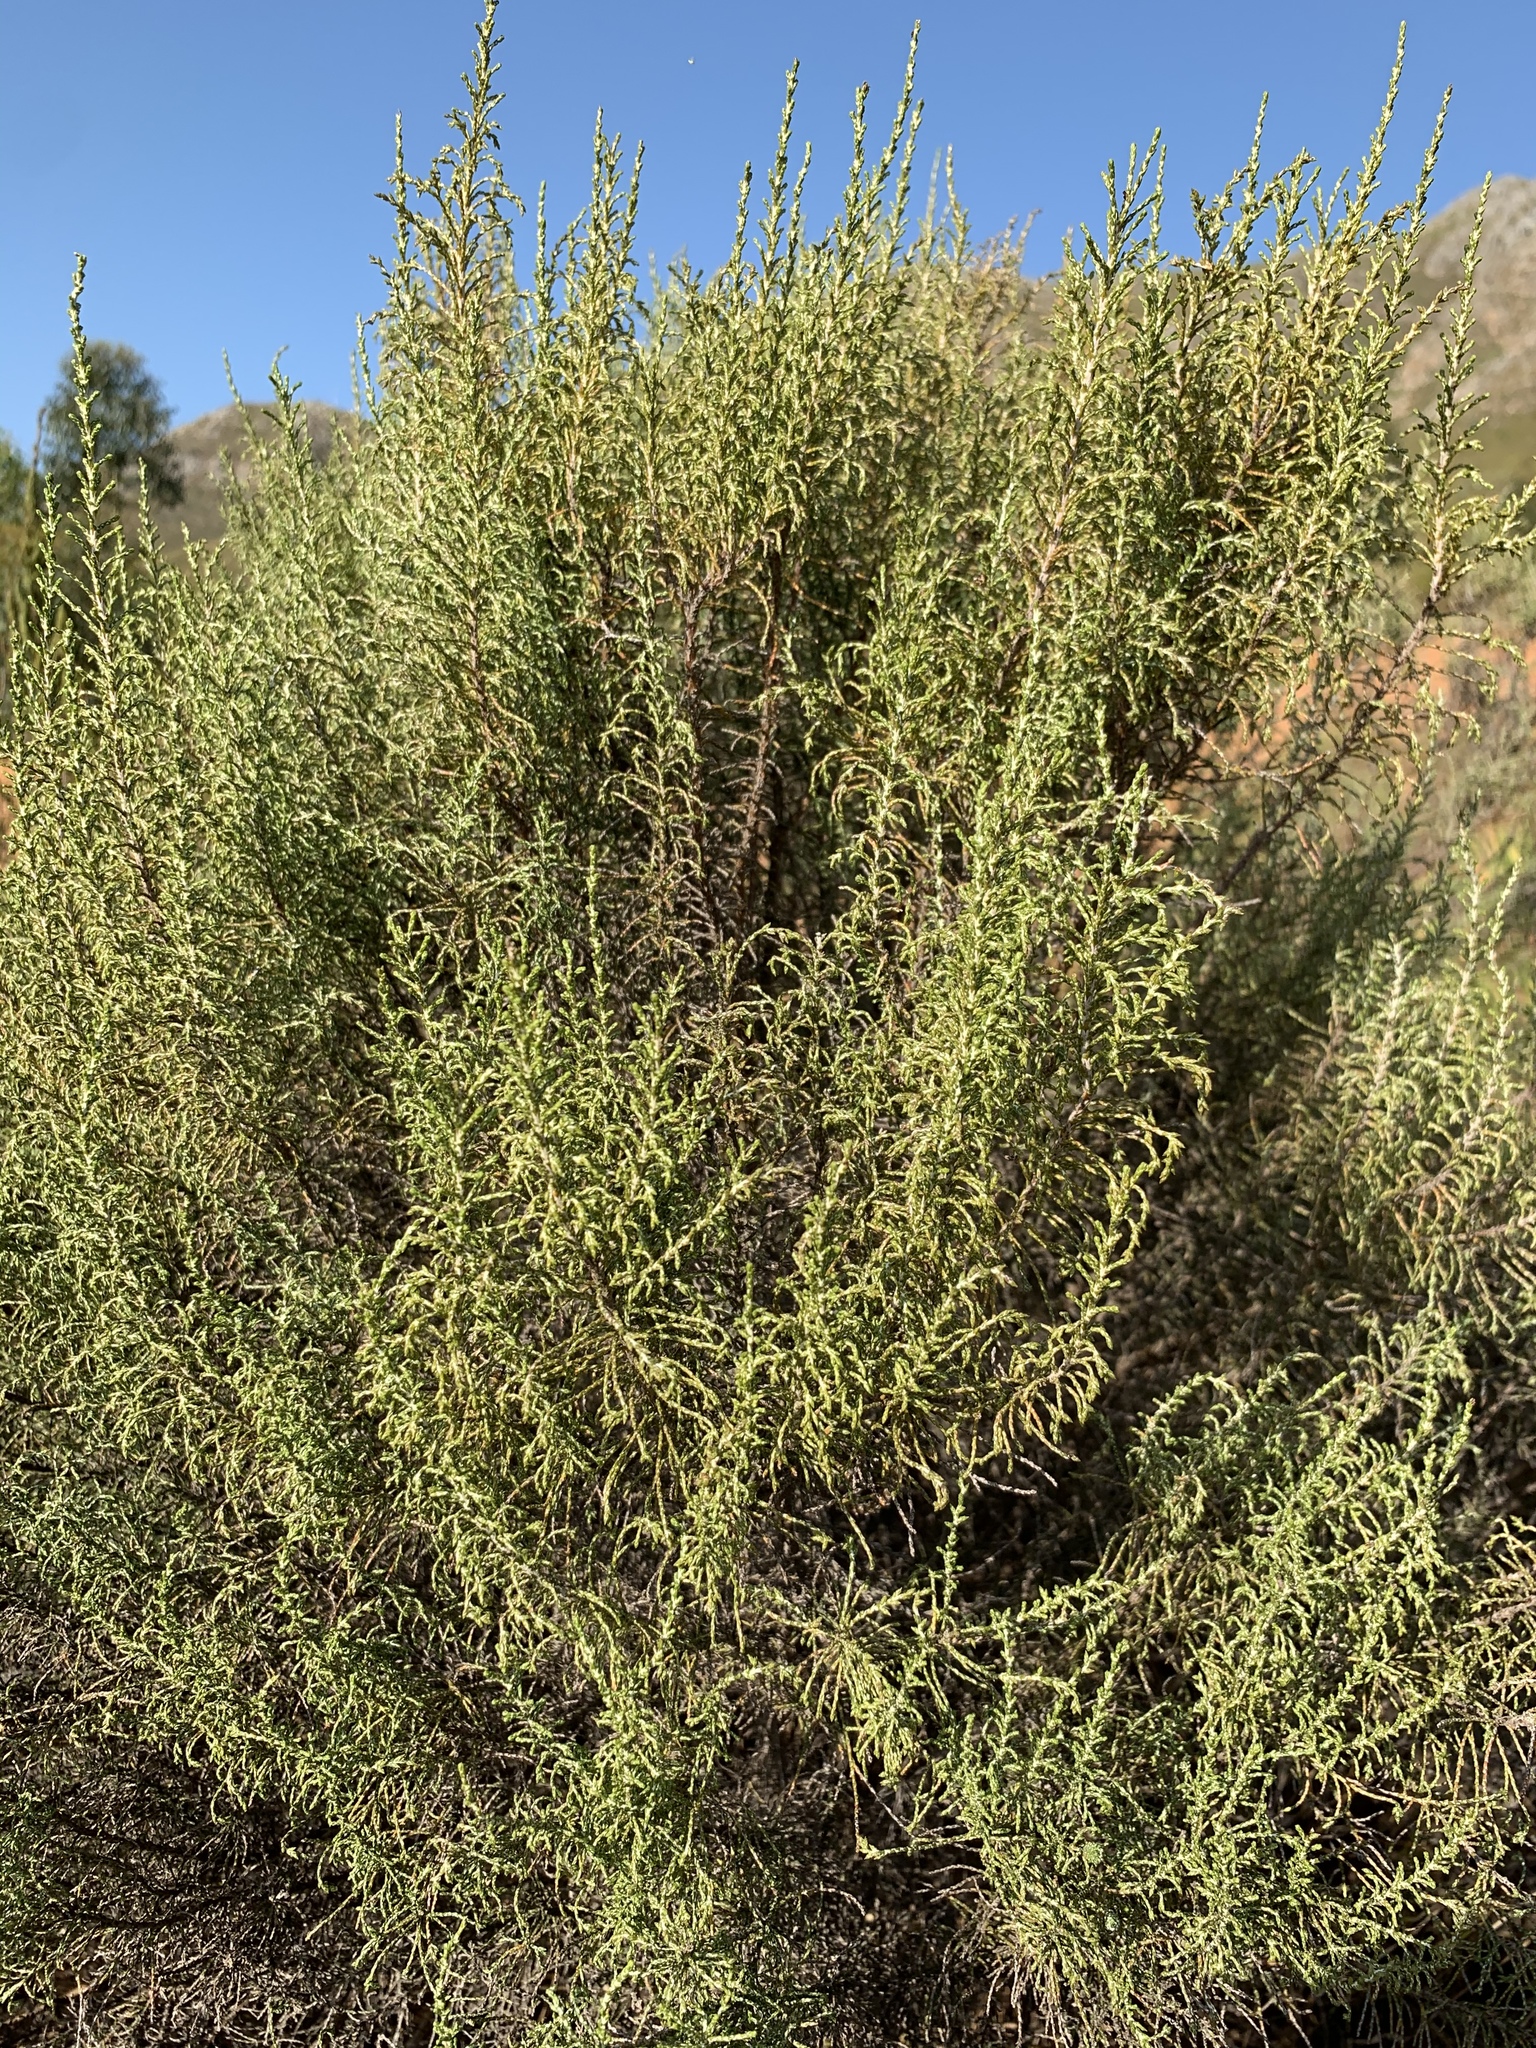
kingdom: Plantae
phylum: Tracheophyta
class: Magnoliopsida
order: Asterales
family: Asteraceae
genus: Dicerothamnus
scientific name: Dicerothamnus rhinocerotis
